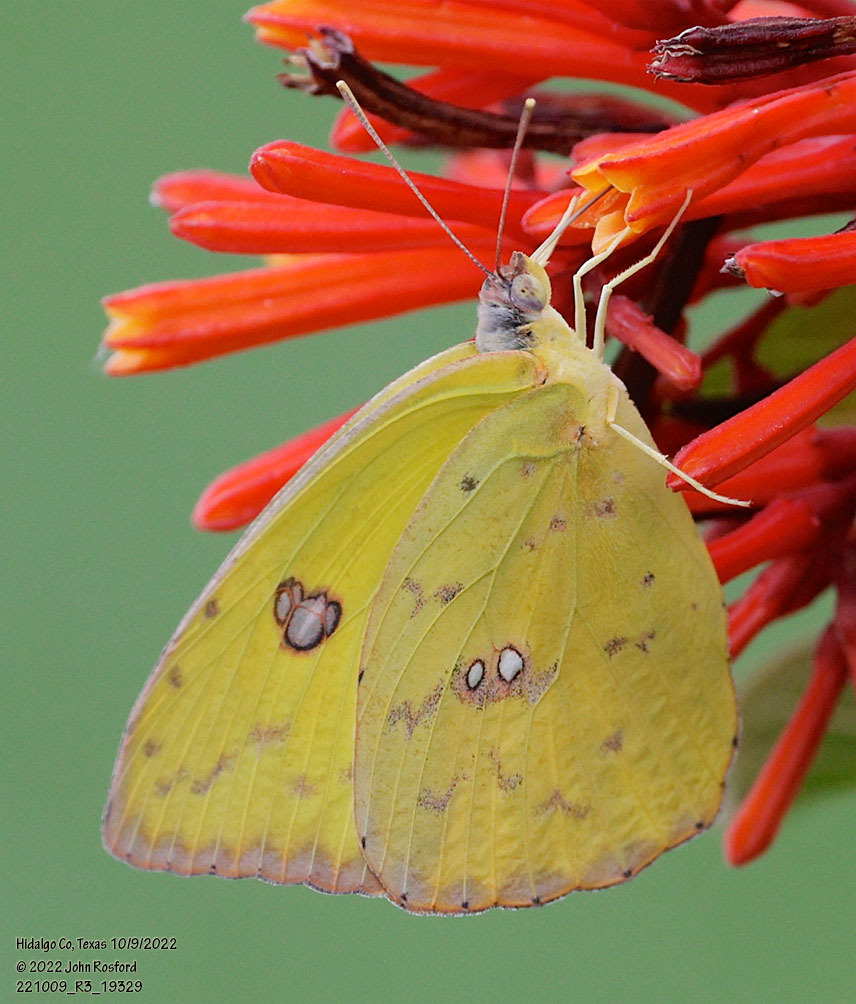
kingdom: Animalia
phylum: Arthropoda
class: Insecta
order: Lepidoptera
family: Pieridae
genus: Phoebis
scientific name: Phoebis sennae
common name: Cloudless sulphur
